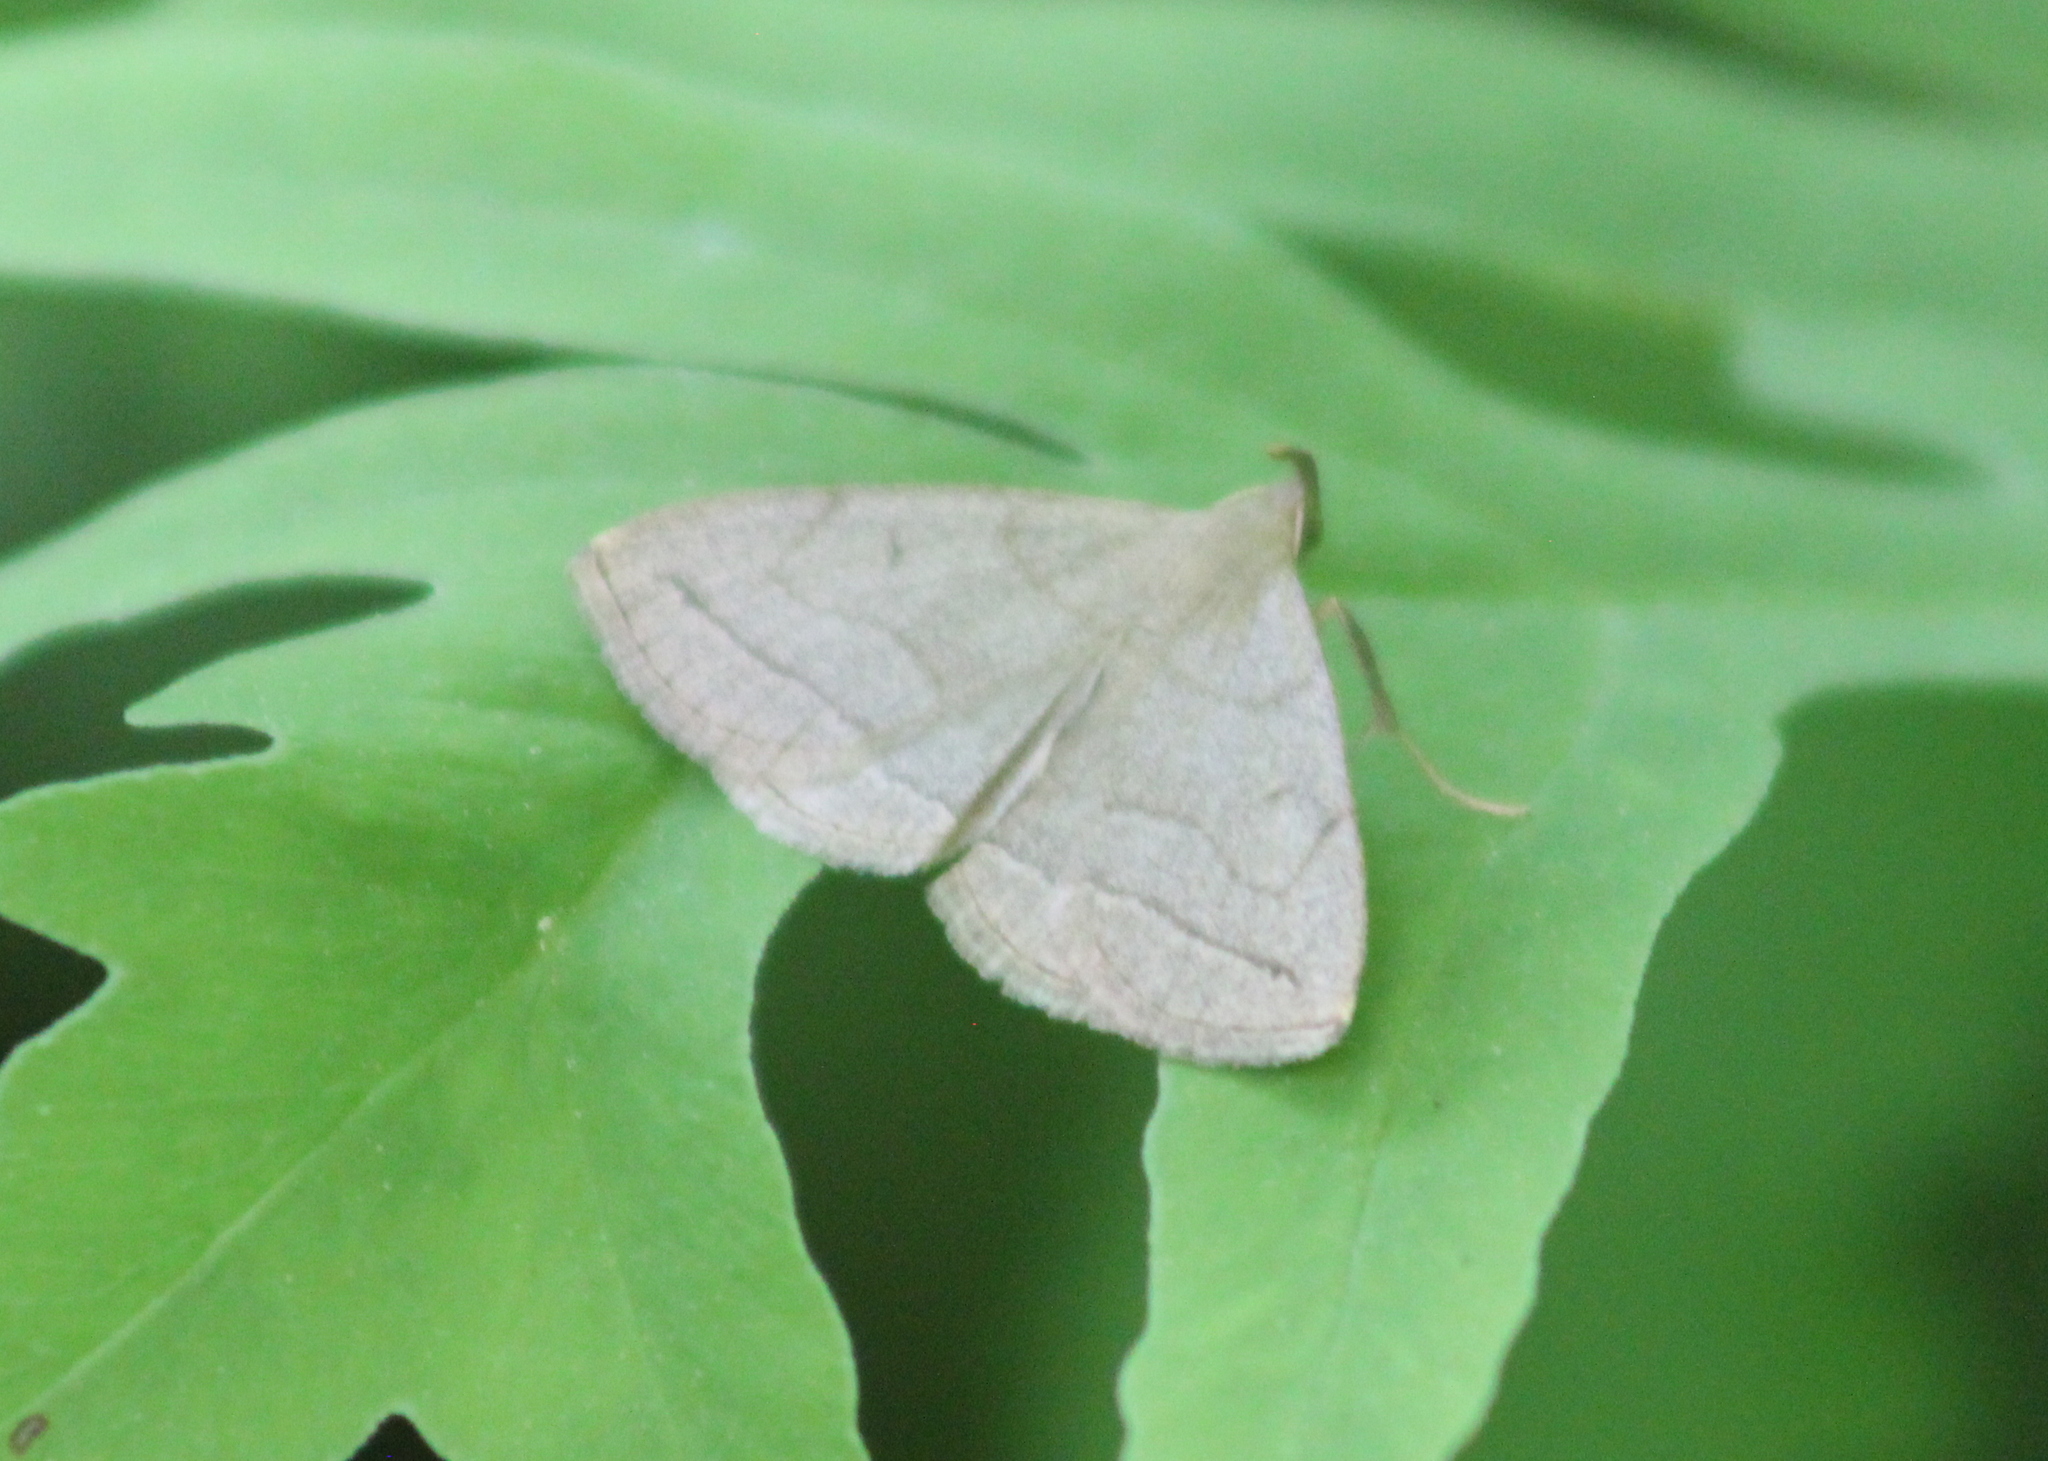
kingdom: Animalia
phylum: Arthropoda
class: Insecta
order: Lepidoptera
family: Erebidae
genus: Zanclognatha
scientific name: Zanclognatha pedipilalis
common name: Grayish fan-foot
